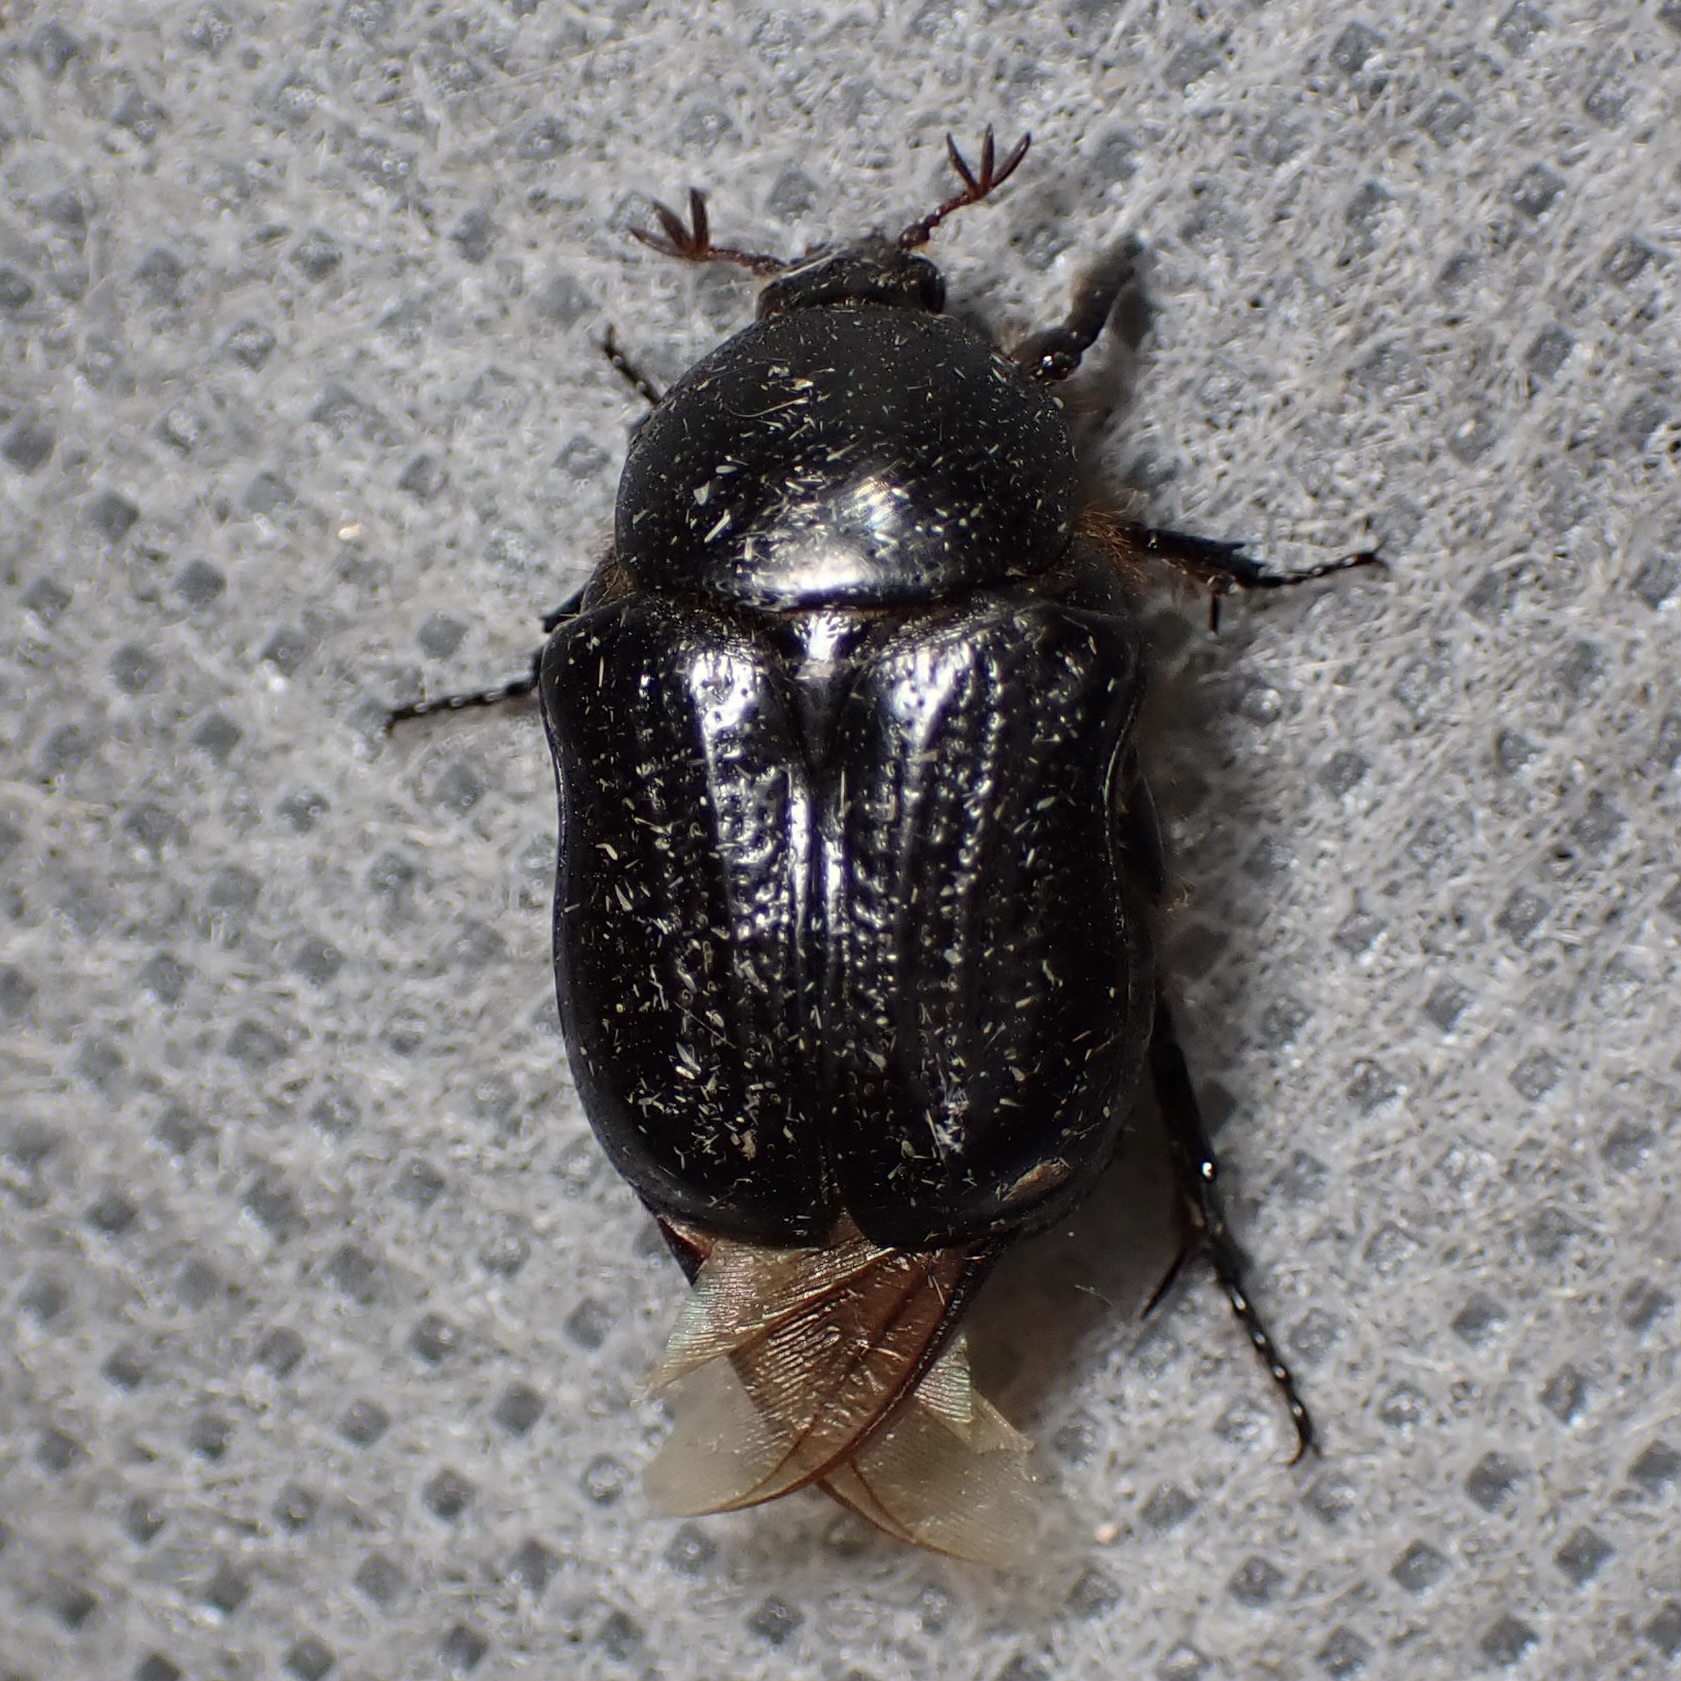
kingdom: Animalia
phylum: Arthropoda
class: Insecta
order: Coleoptera
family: Scarabaeidae
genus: Euphoria
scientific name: Euphoria verticalis
